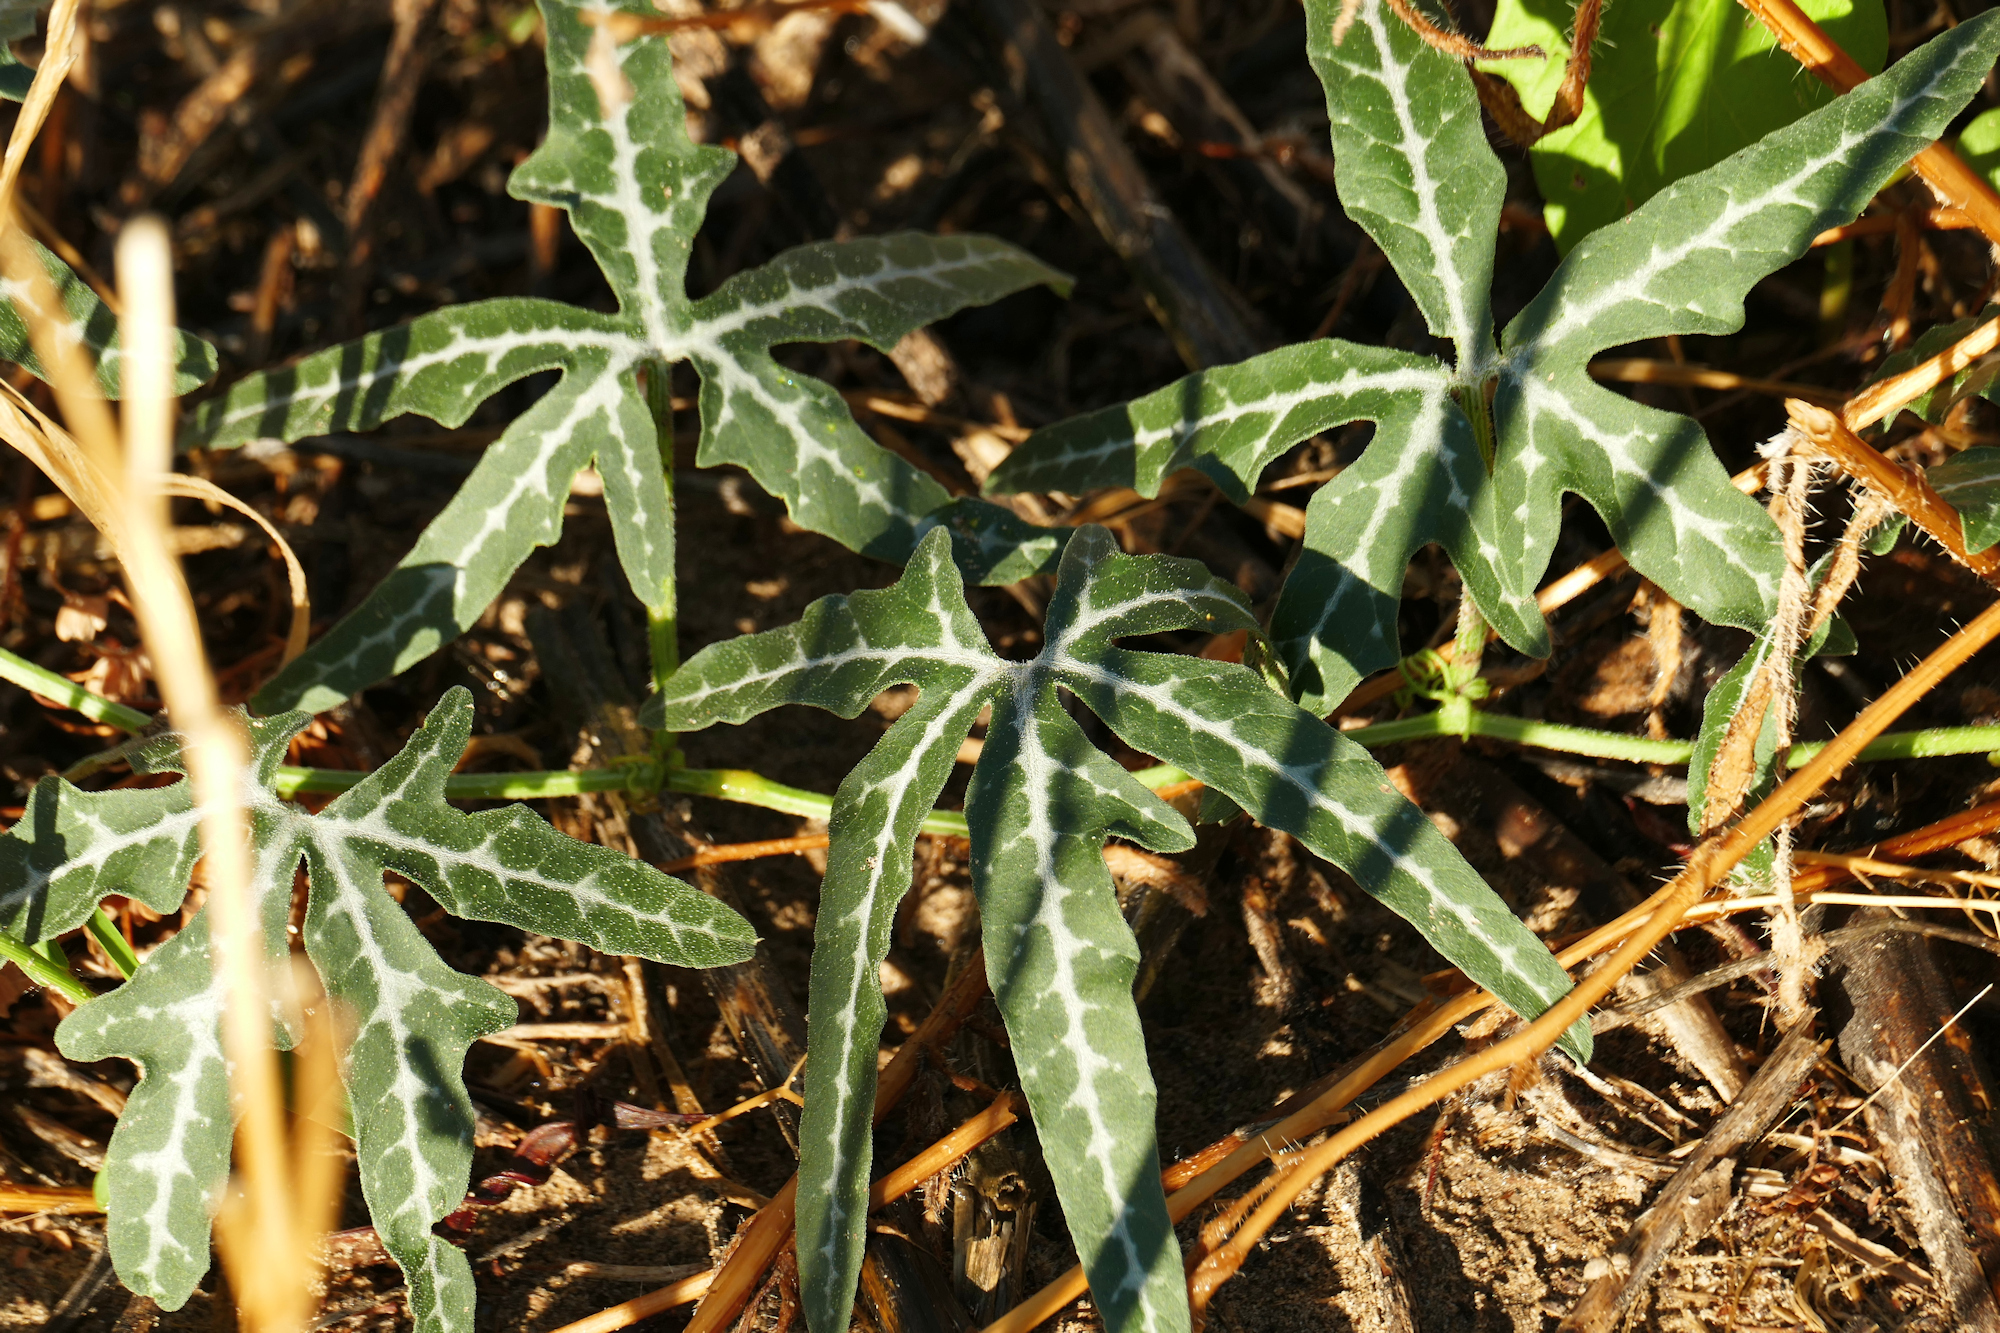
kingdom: Plantae
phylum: Tracheophyta
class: Magnoliopsida
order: Cucurbitales
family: Cucurbitaceae
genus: Cucurbita
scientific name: Cucurbita digitata
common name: Finger-leaf gourd
